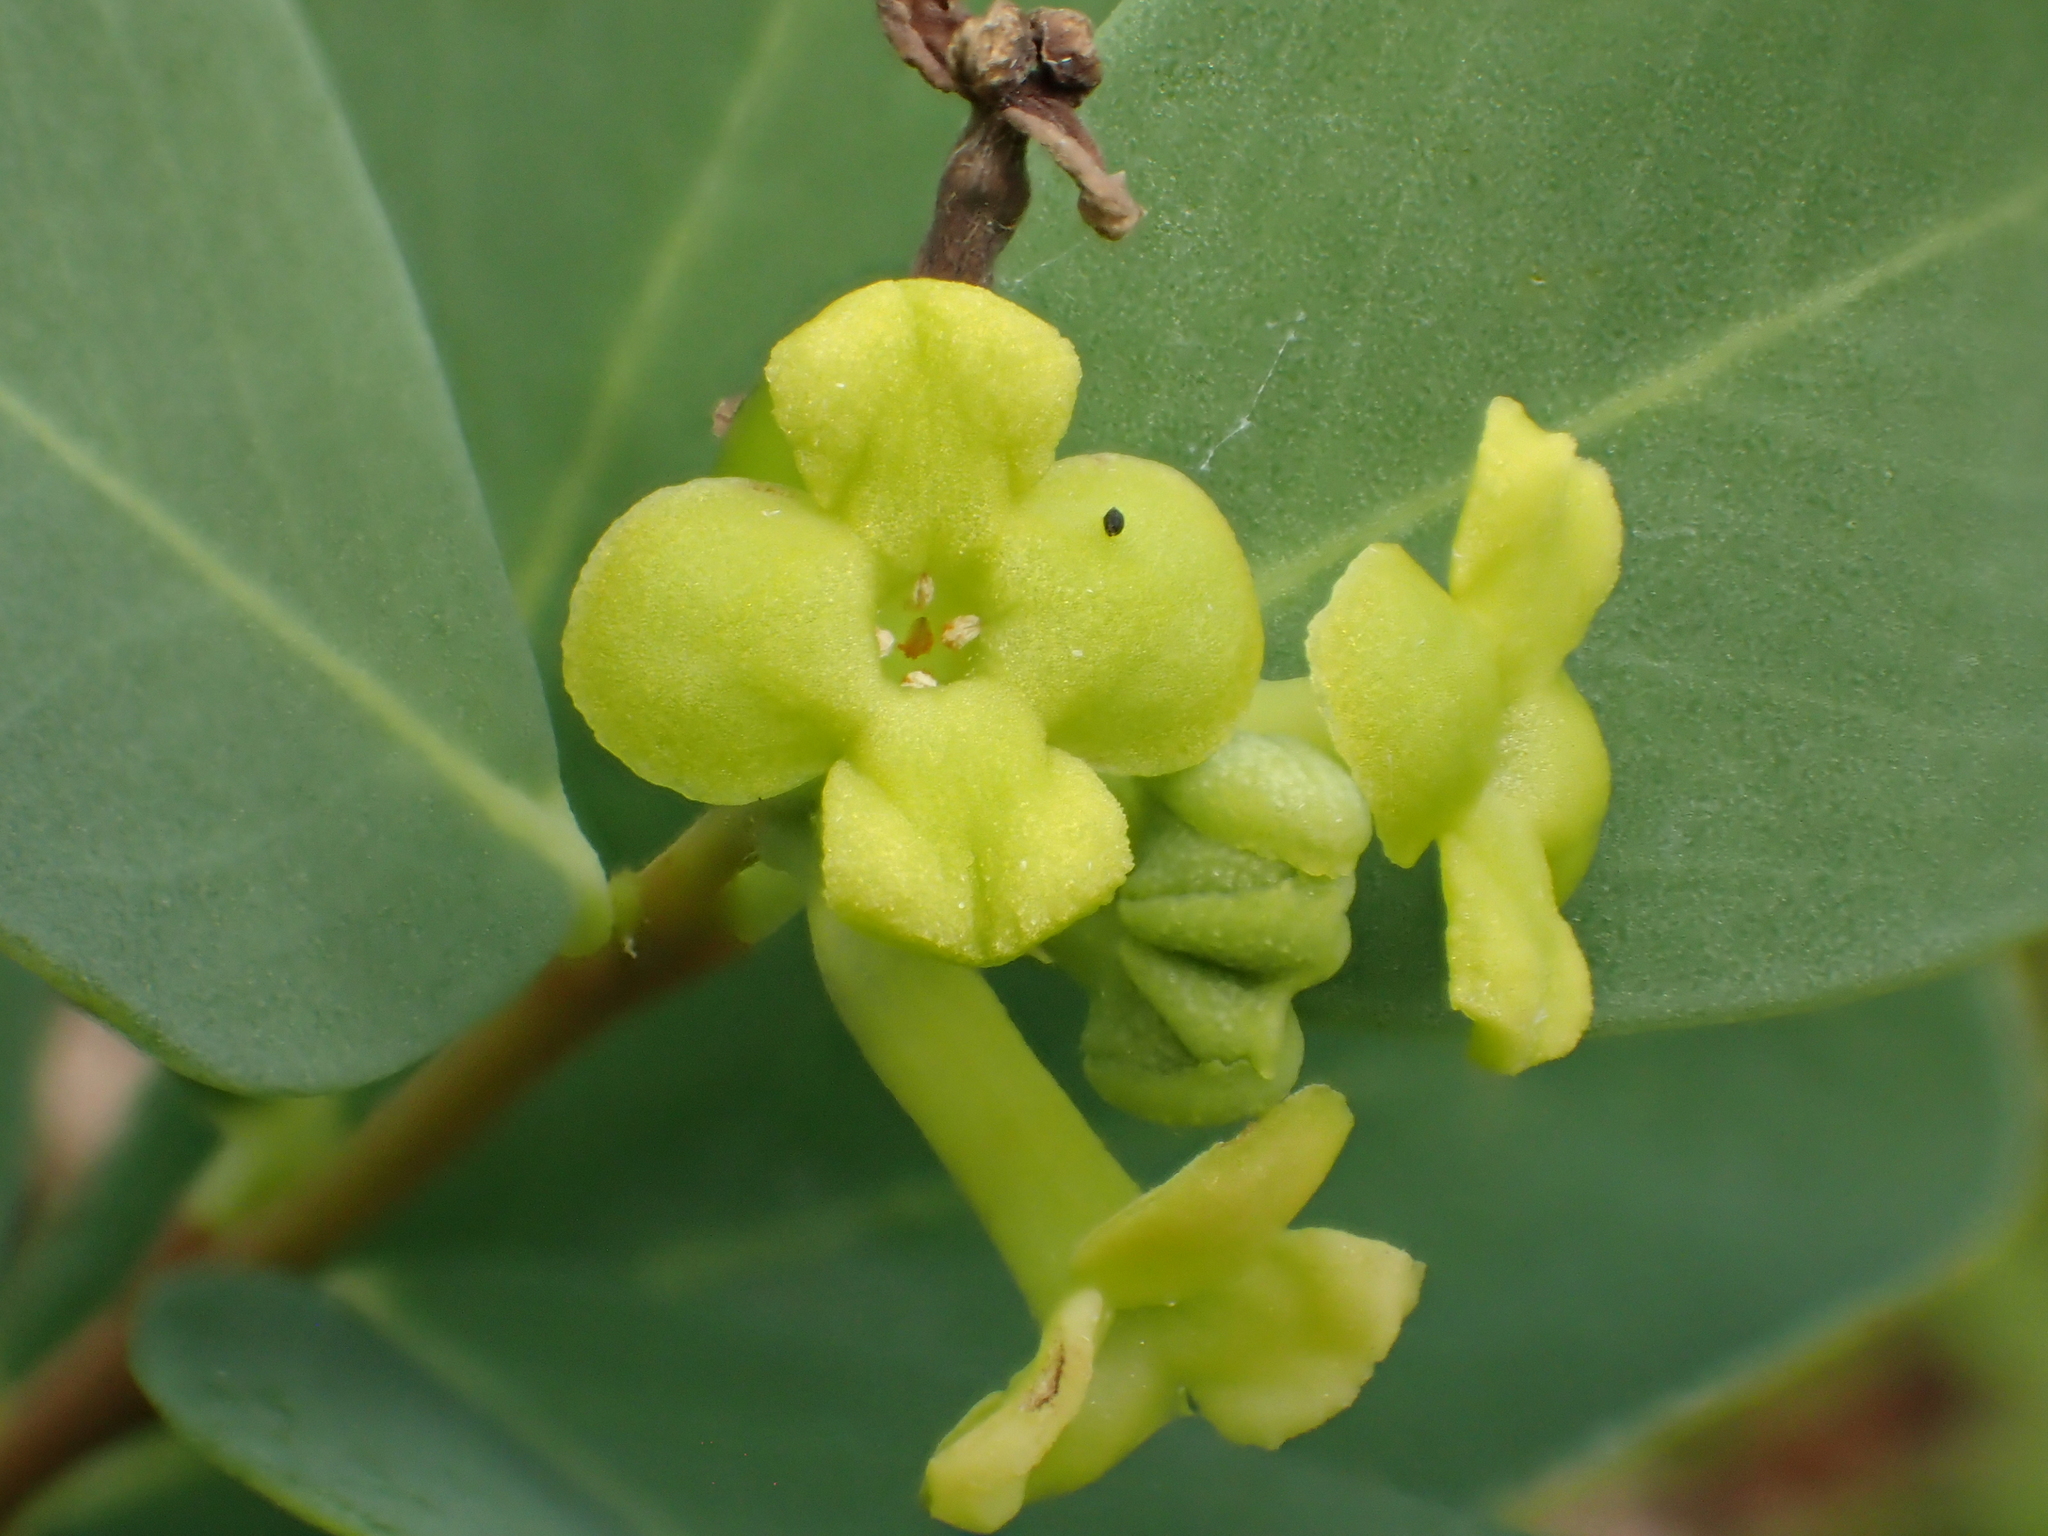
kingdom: Plantae
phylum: Tracheophyta
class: Magnoliopsida
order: Malvales
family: Thymelaeaceae
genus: Wikstroemia
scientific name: Wikstroemia indica
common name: Tiebush
